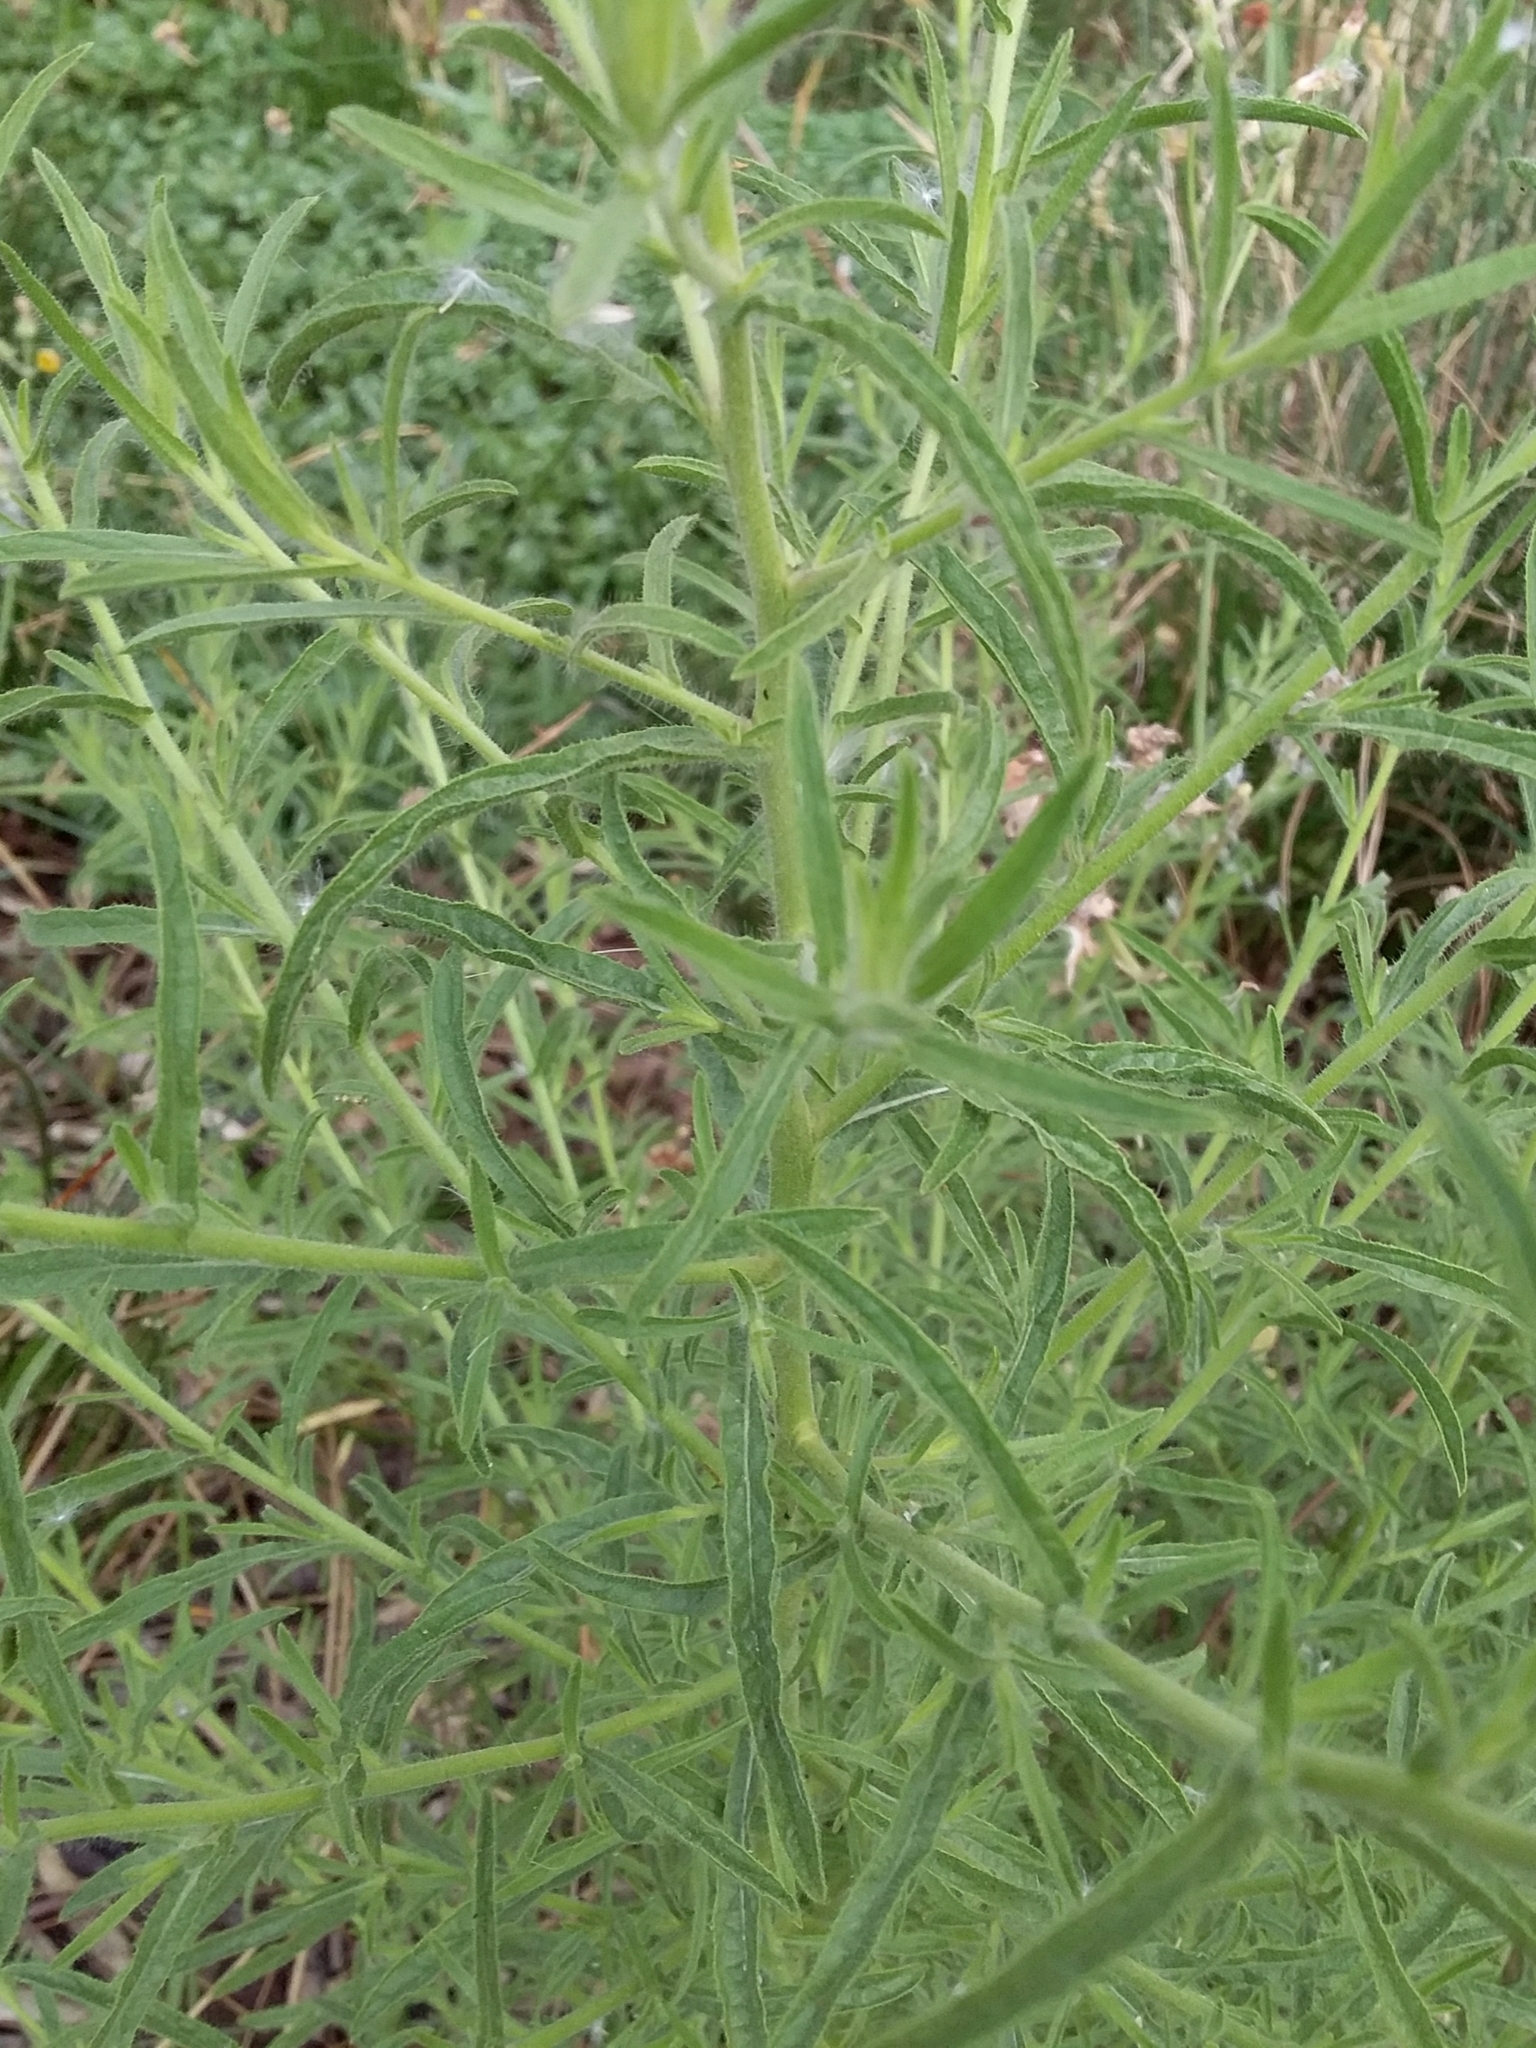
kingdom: Plantae
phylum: Tracheophyta
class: Magnoliopsida
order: Asterales
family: Asteraceae
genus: Dittrichia
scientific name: Dittrichia graveolens
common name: Stinking fleabane
